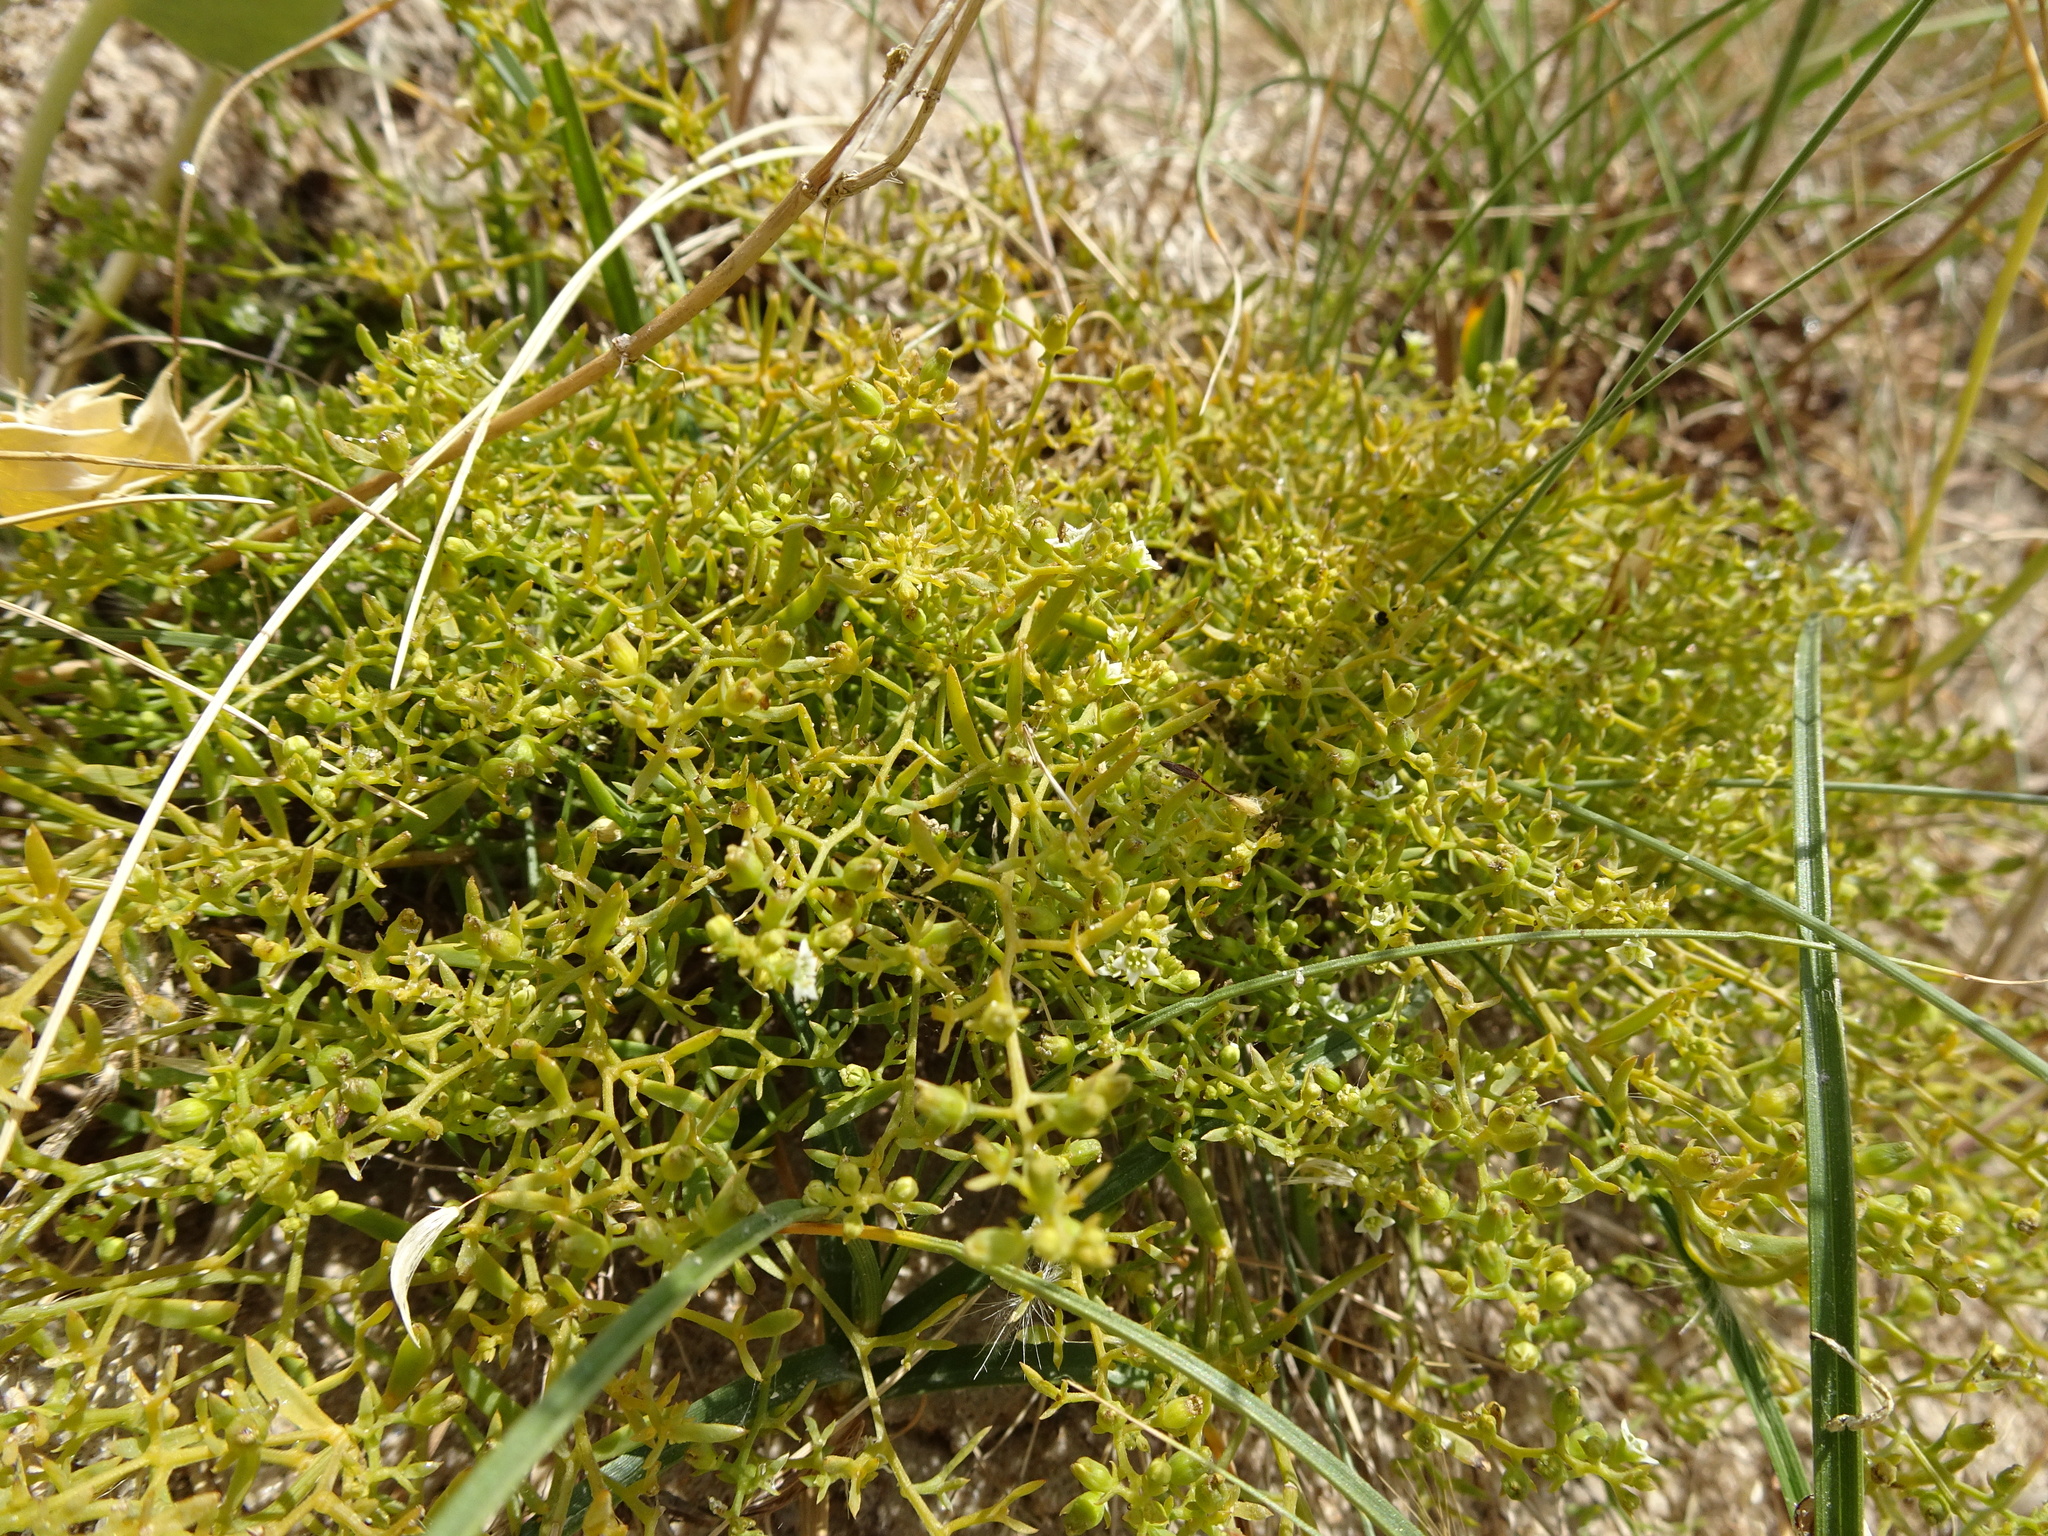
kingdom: Plantae
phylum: Tracheophyta
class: Magnoliopsida
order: Santalales
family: Thesiaceae
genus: Thesium
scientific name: Thesium humifusum
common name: Bastard-toadflax
